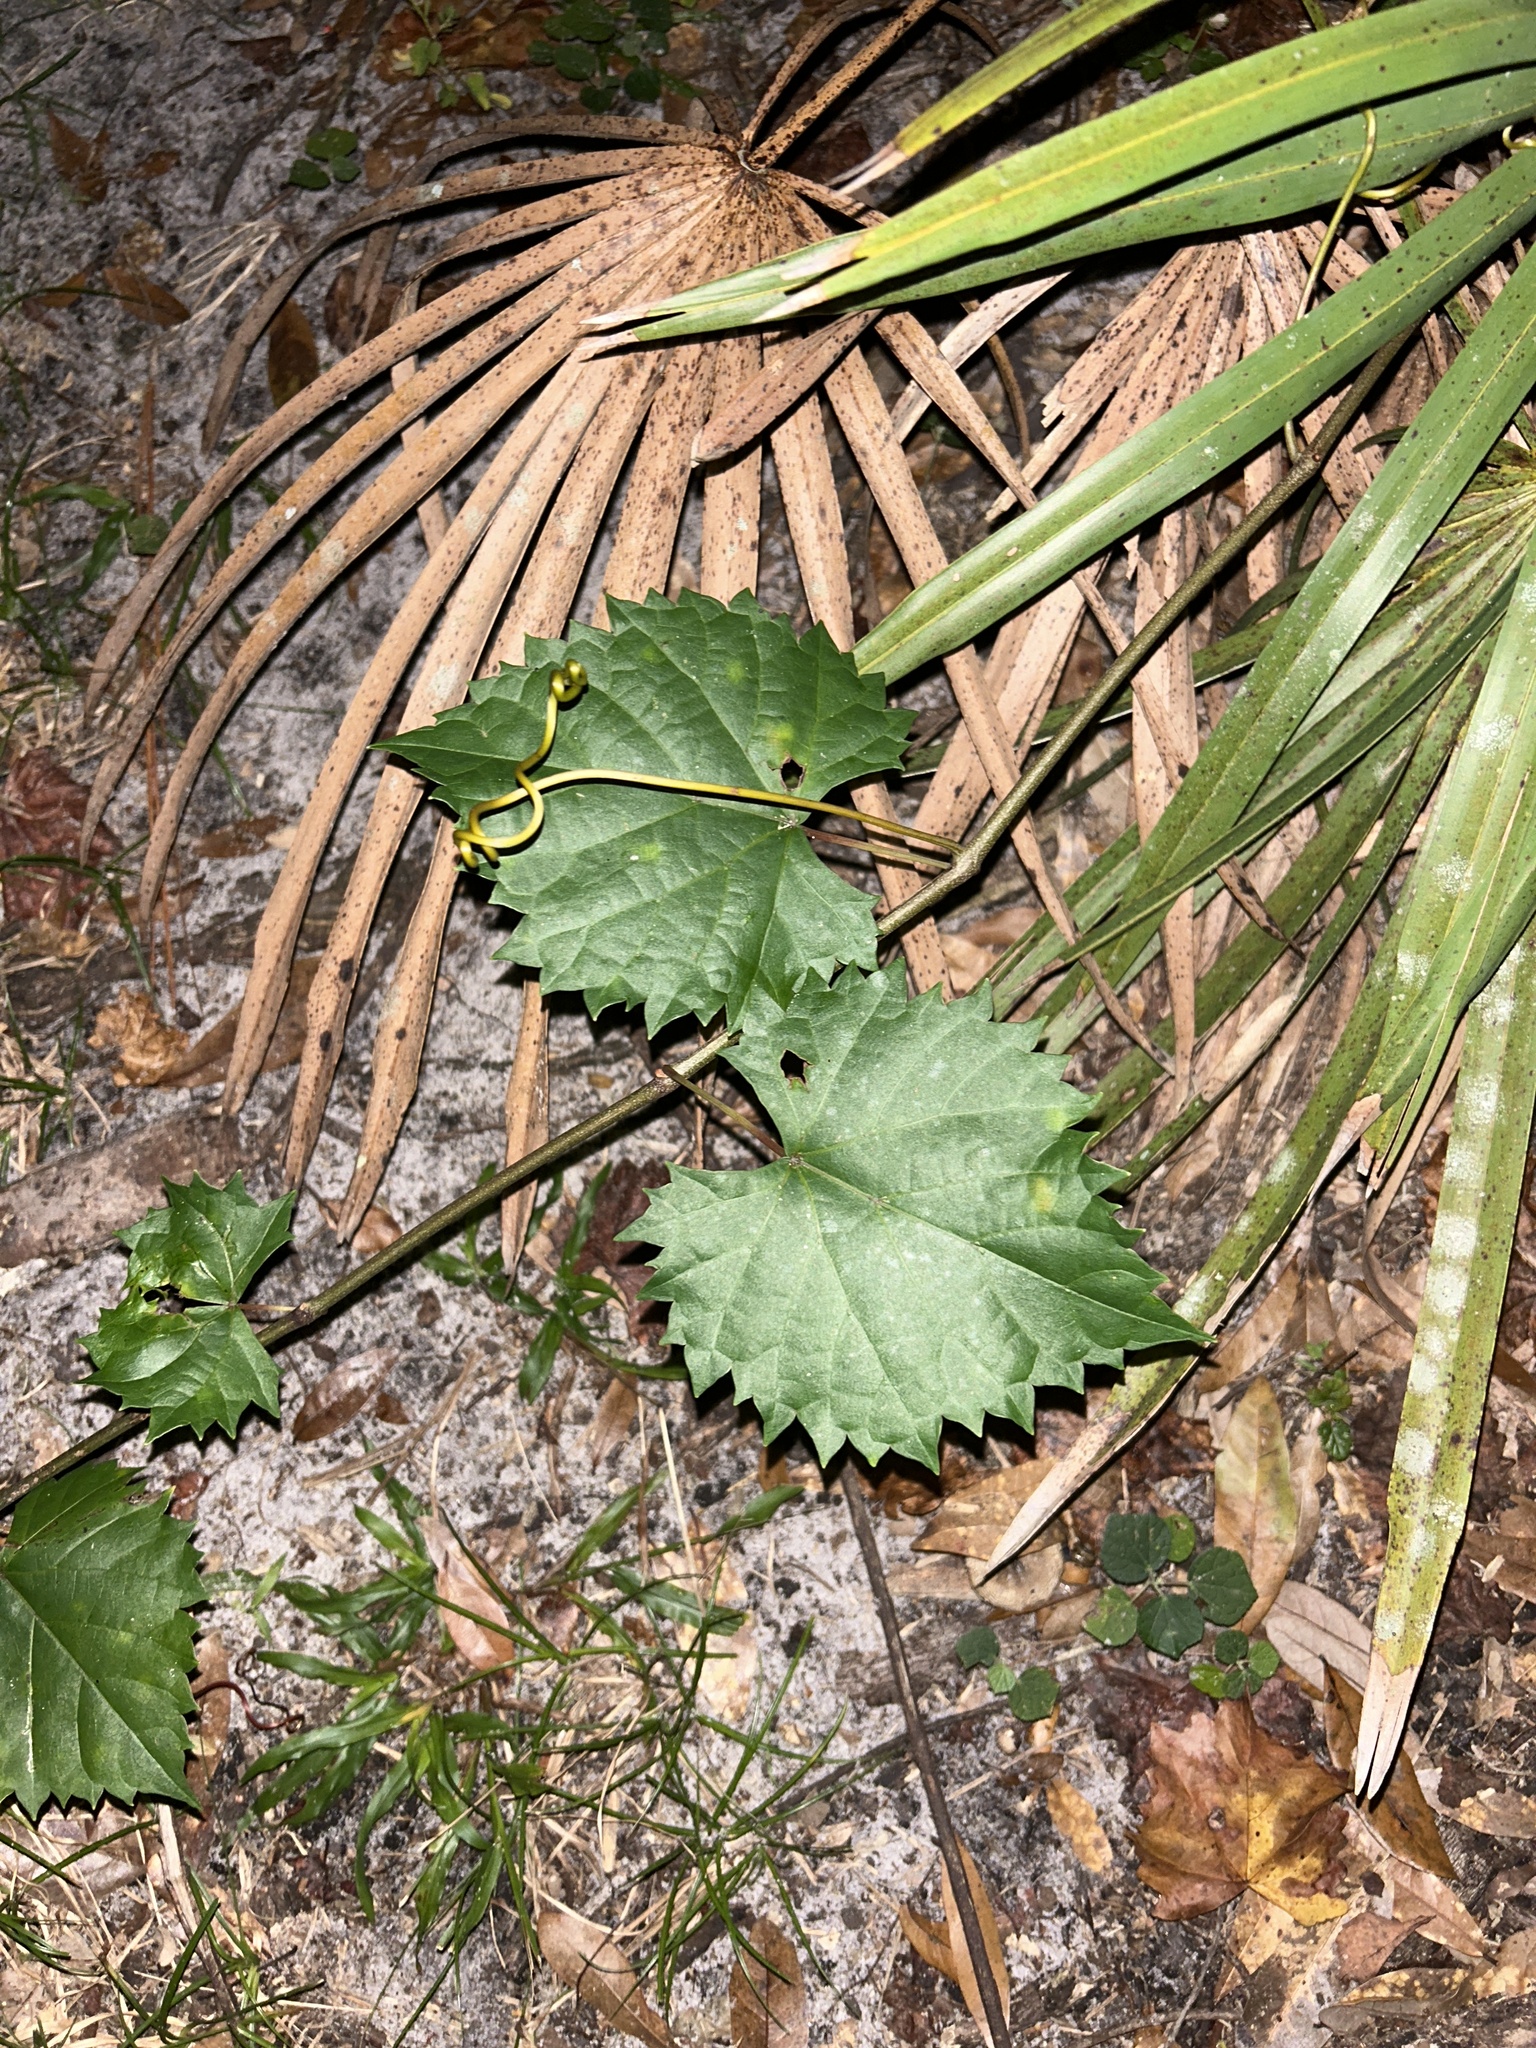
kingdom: Plantae
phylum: Tracheophyta
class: Magnoliopsida
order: Vitales
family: Vitaceae
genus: Vitis
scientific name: Vitis rotundifolia
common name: Muscadine grape
